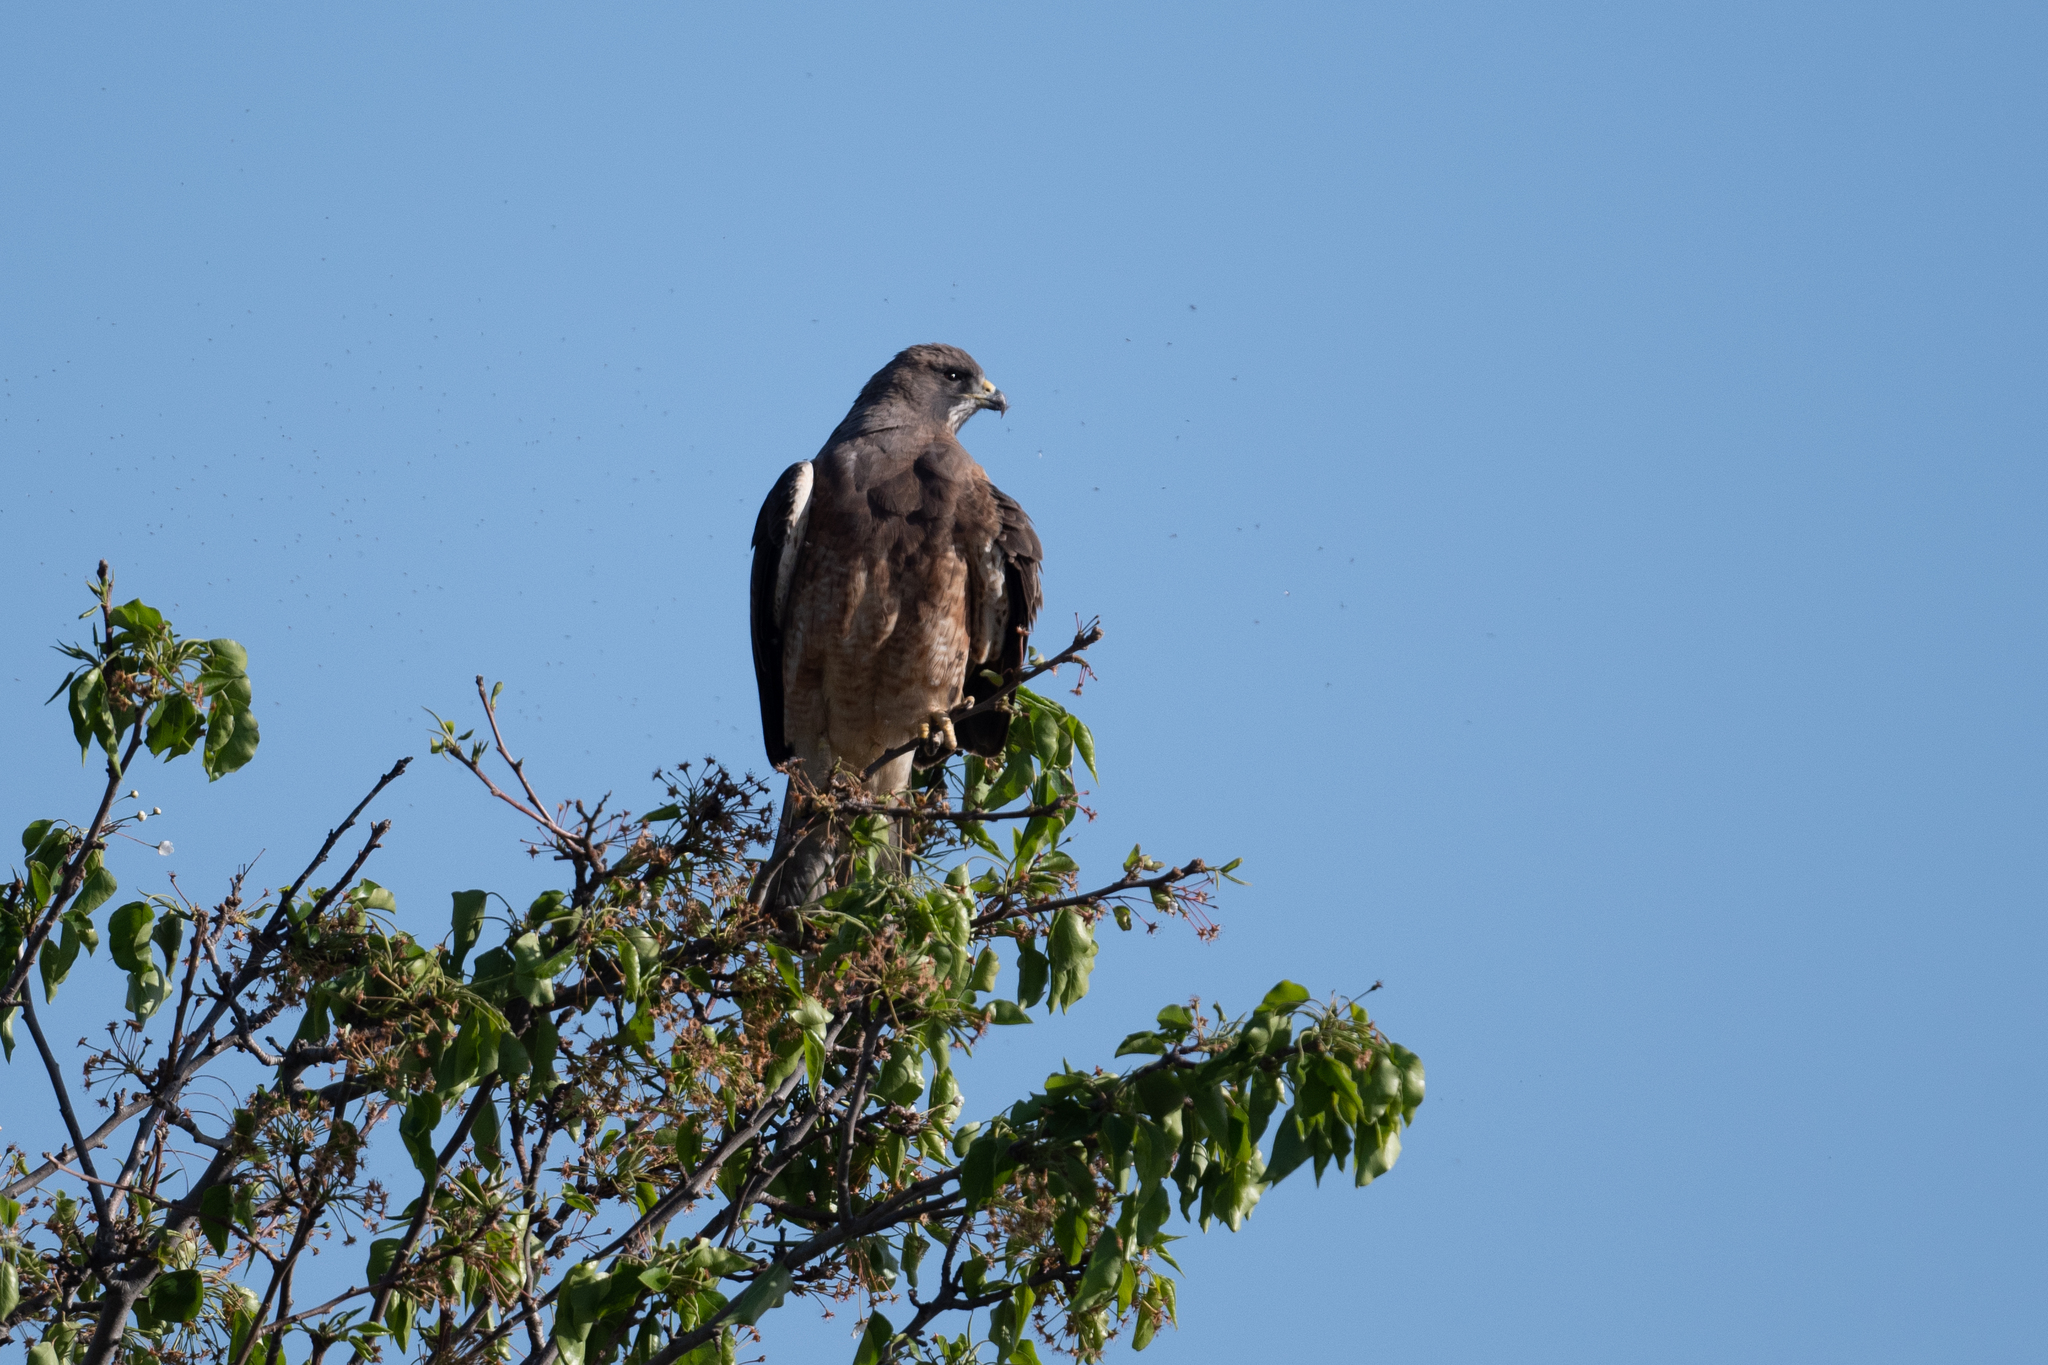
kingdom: Animalia
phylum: Chordata
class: Aves
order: Accipitriformes
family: Accipitridae
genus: Buteo
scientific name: Buteo swainsoni
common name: Swainson's hawk
